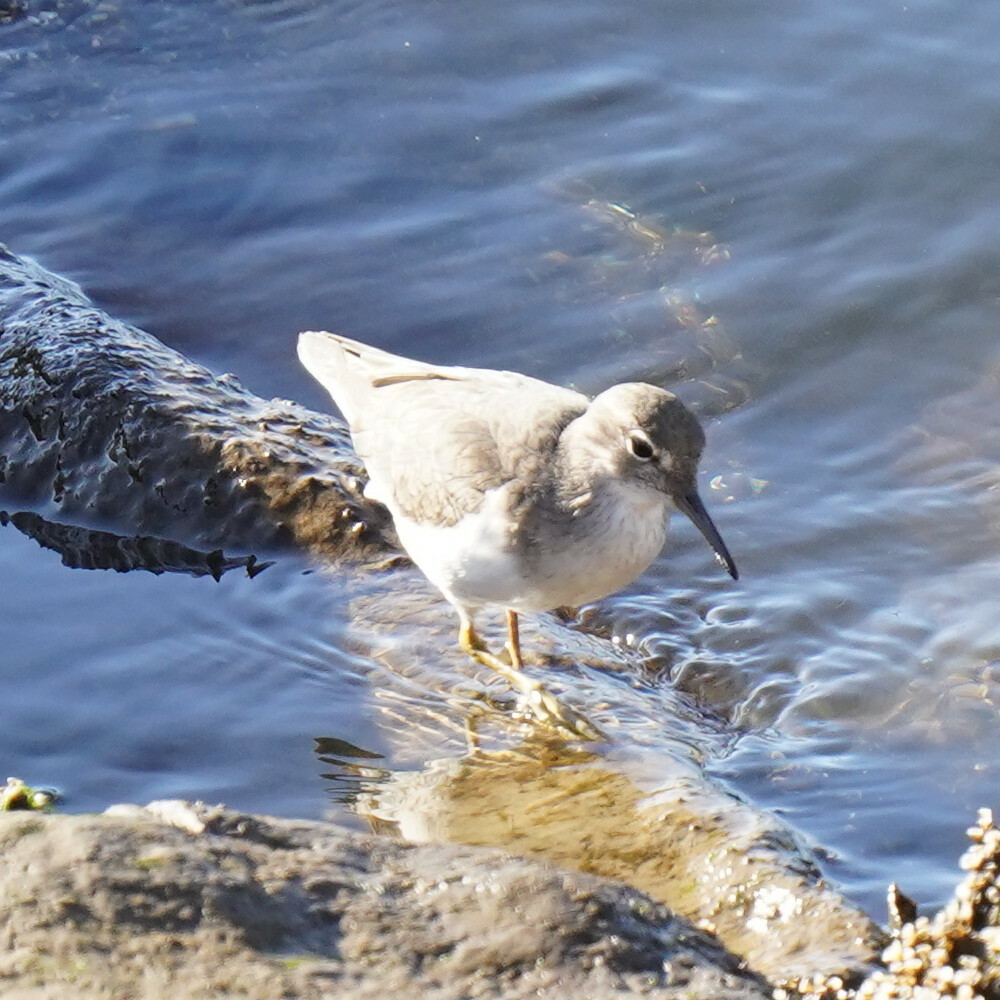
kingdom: Animalia
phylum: Chordata
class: Aves
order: Charadriiformes
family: Scolopacidae
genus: Actitis
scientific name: Actitis macularius
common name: Spotted sandpiper
